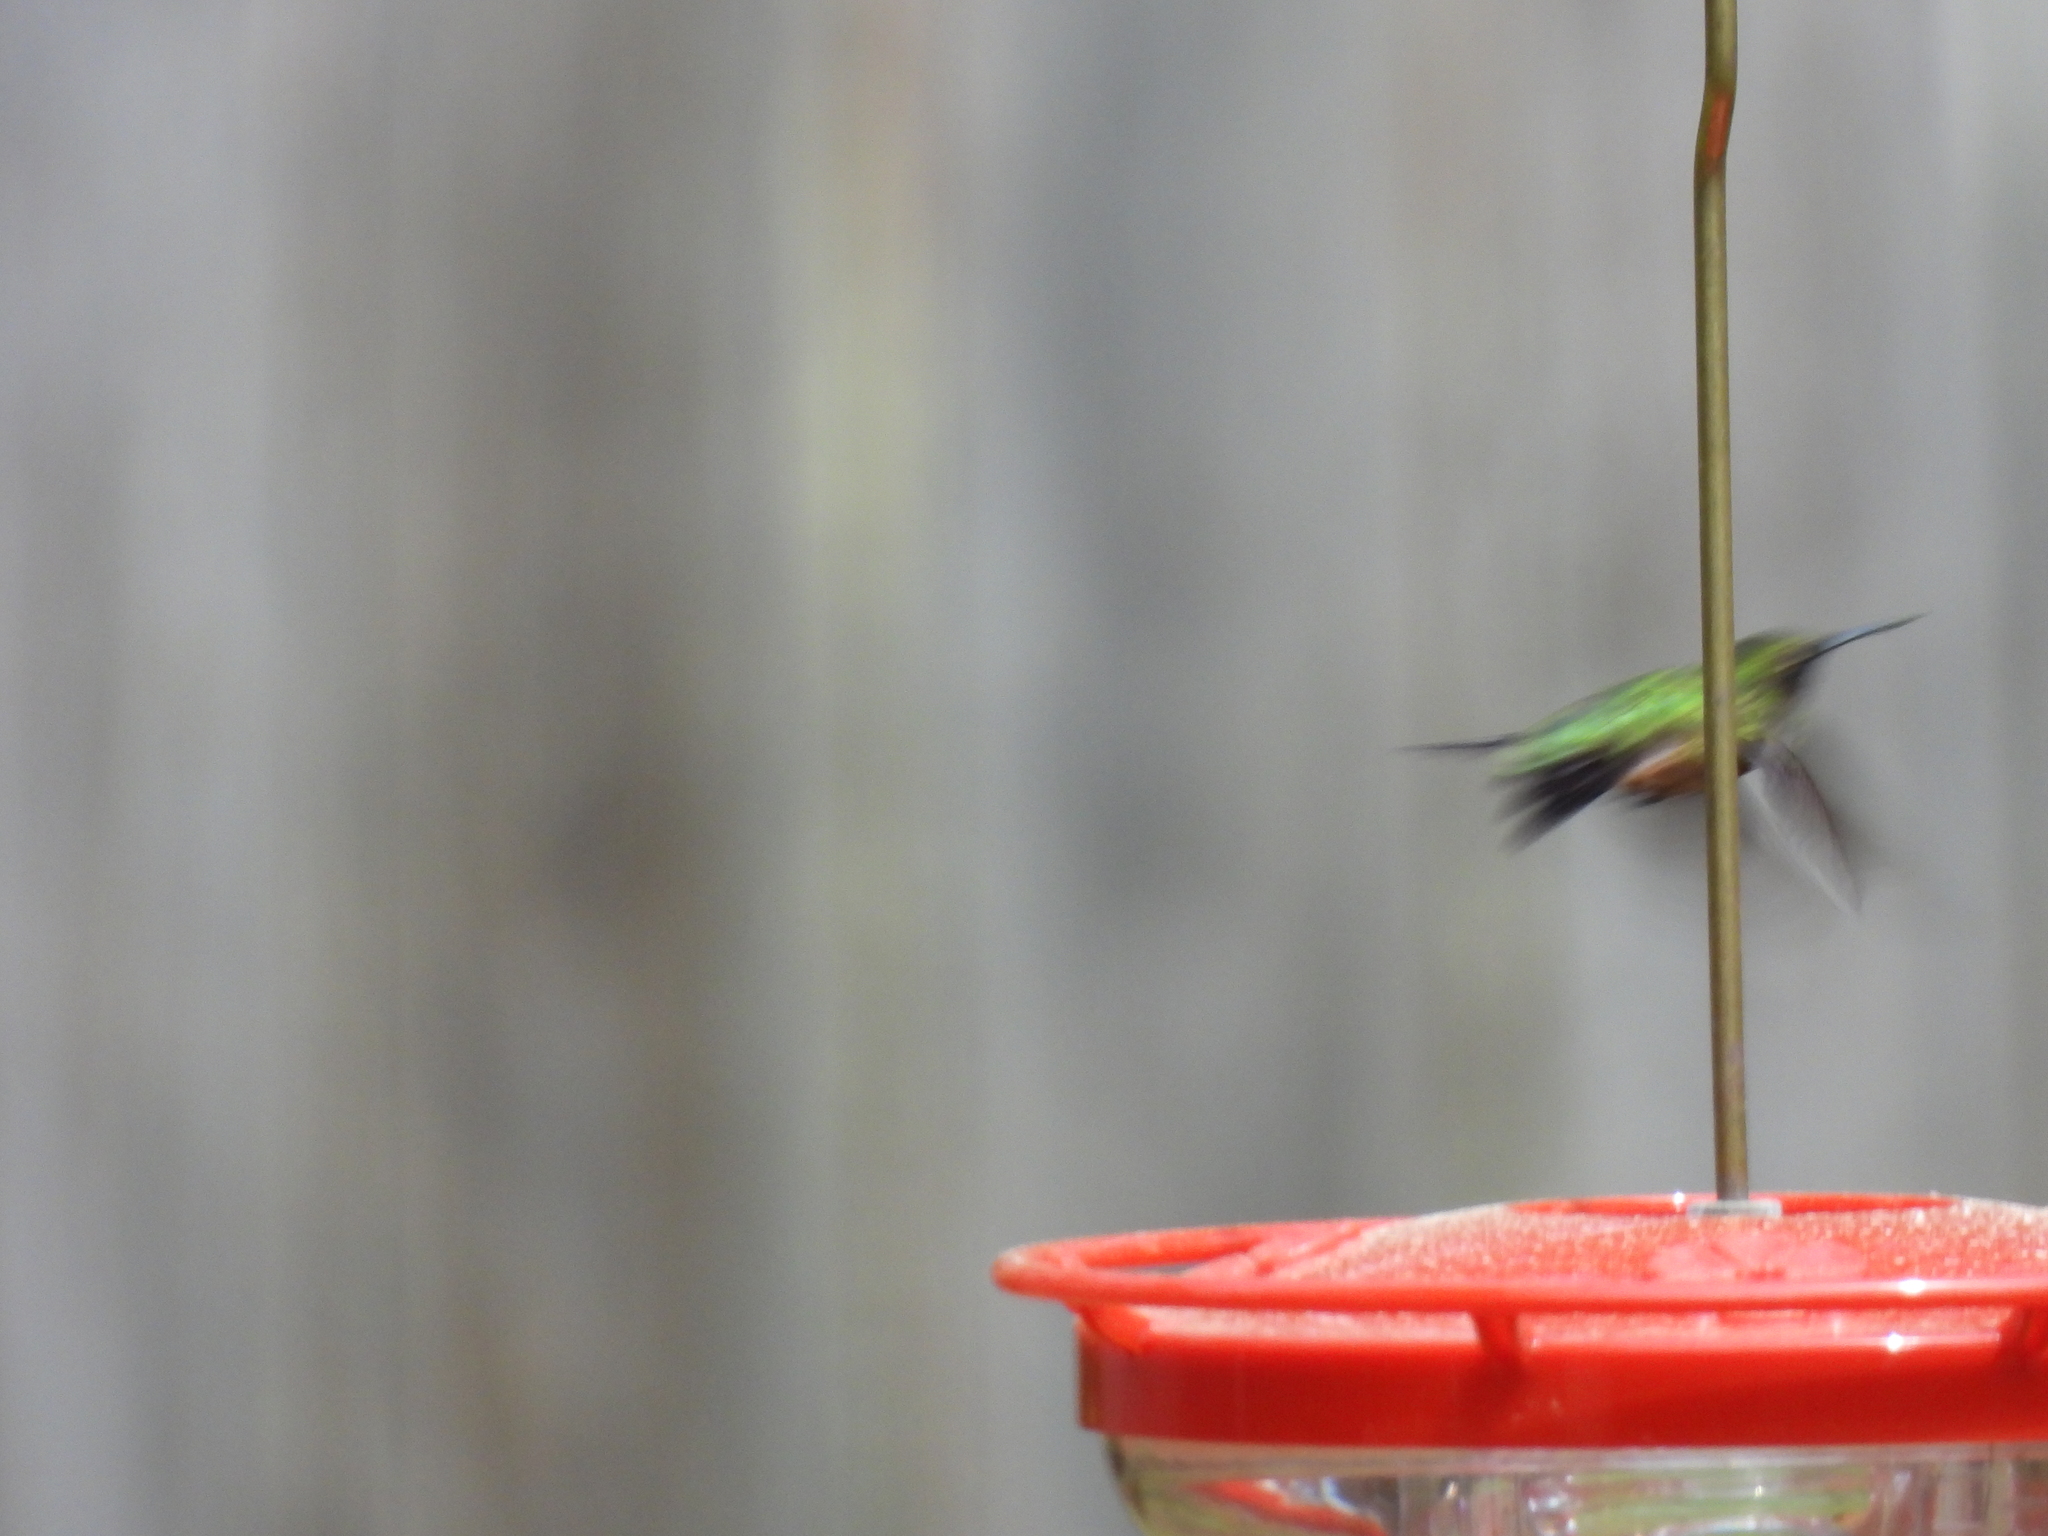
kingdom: Animalia
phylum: Chordata
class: Aves
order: Apodiformes
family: Trochilidae
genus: Archilochus
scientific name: Archilochus colubris
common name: Ruby-throated hummingbird
